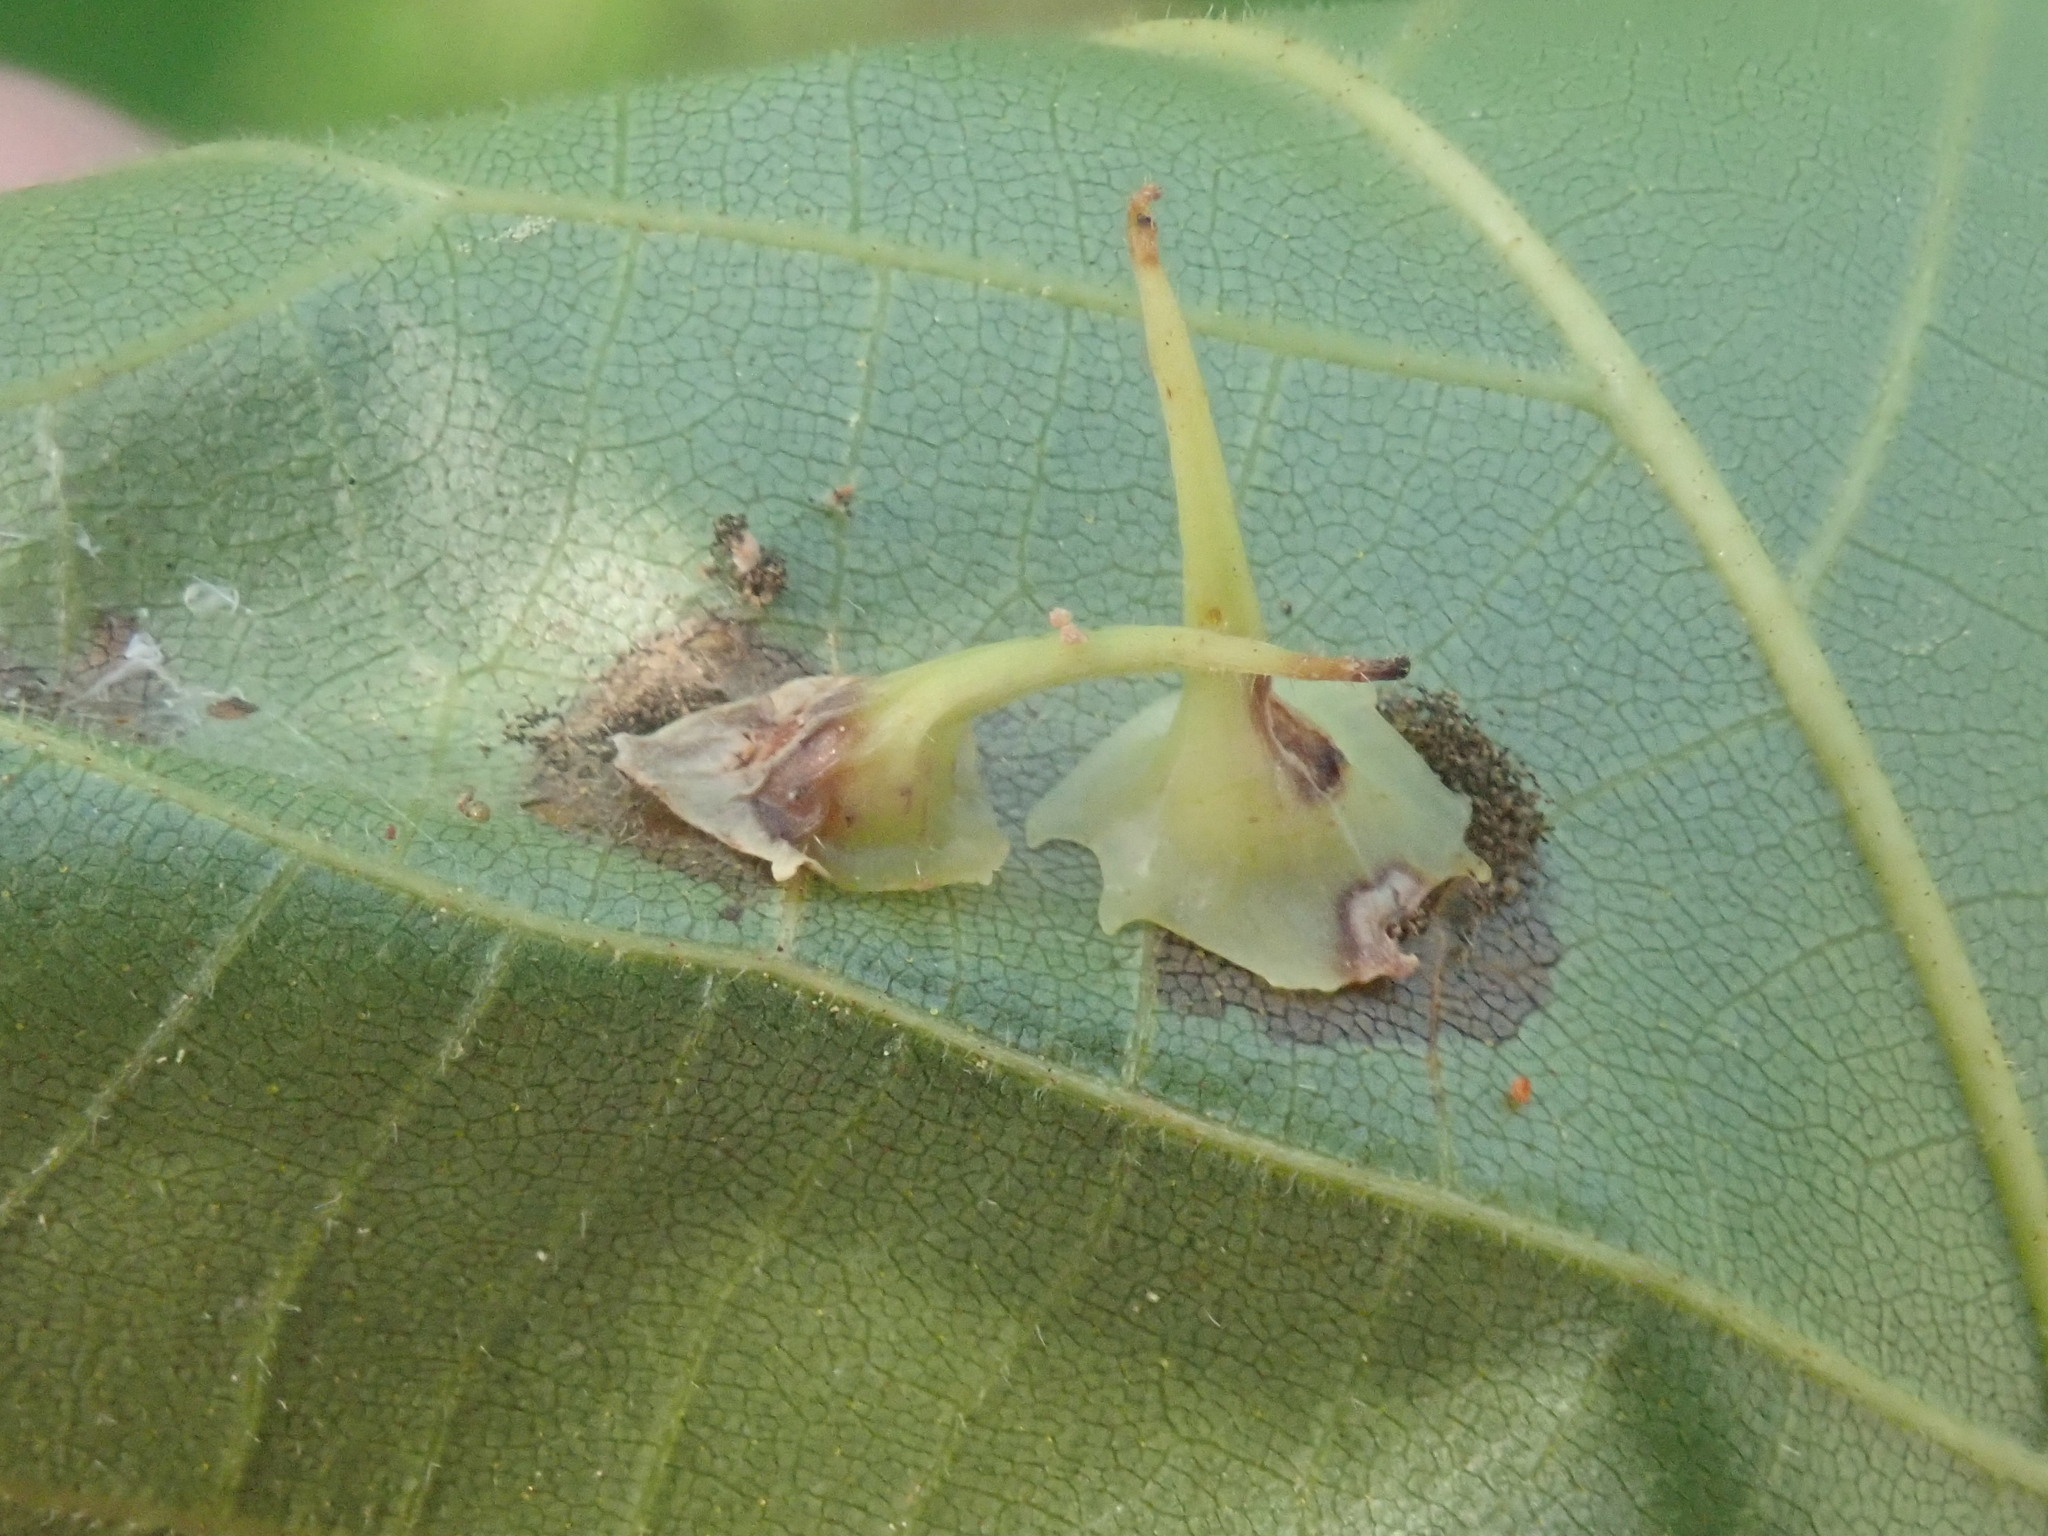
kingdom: Animalia
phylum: Arthropoda
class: Insecta
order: Diptera
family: Cecidomyiidae
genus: Caryomyia
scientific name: Caryomyia stellata
